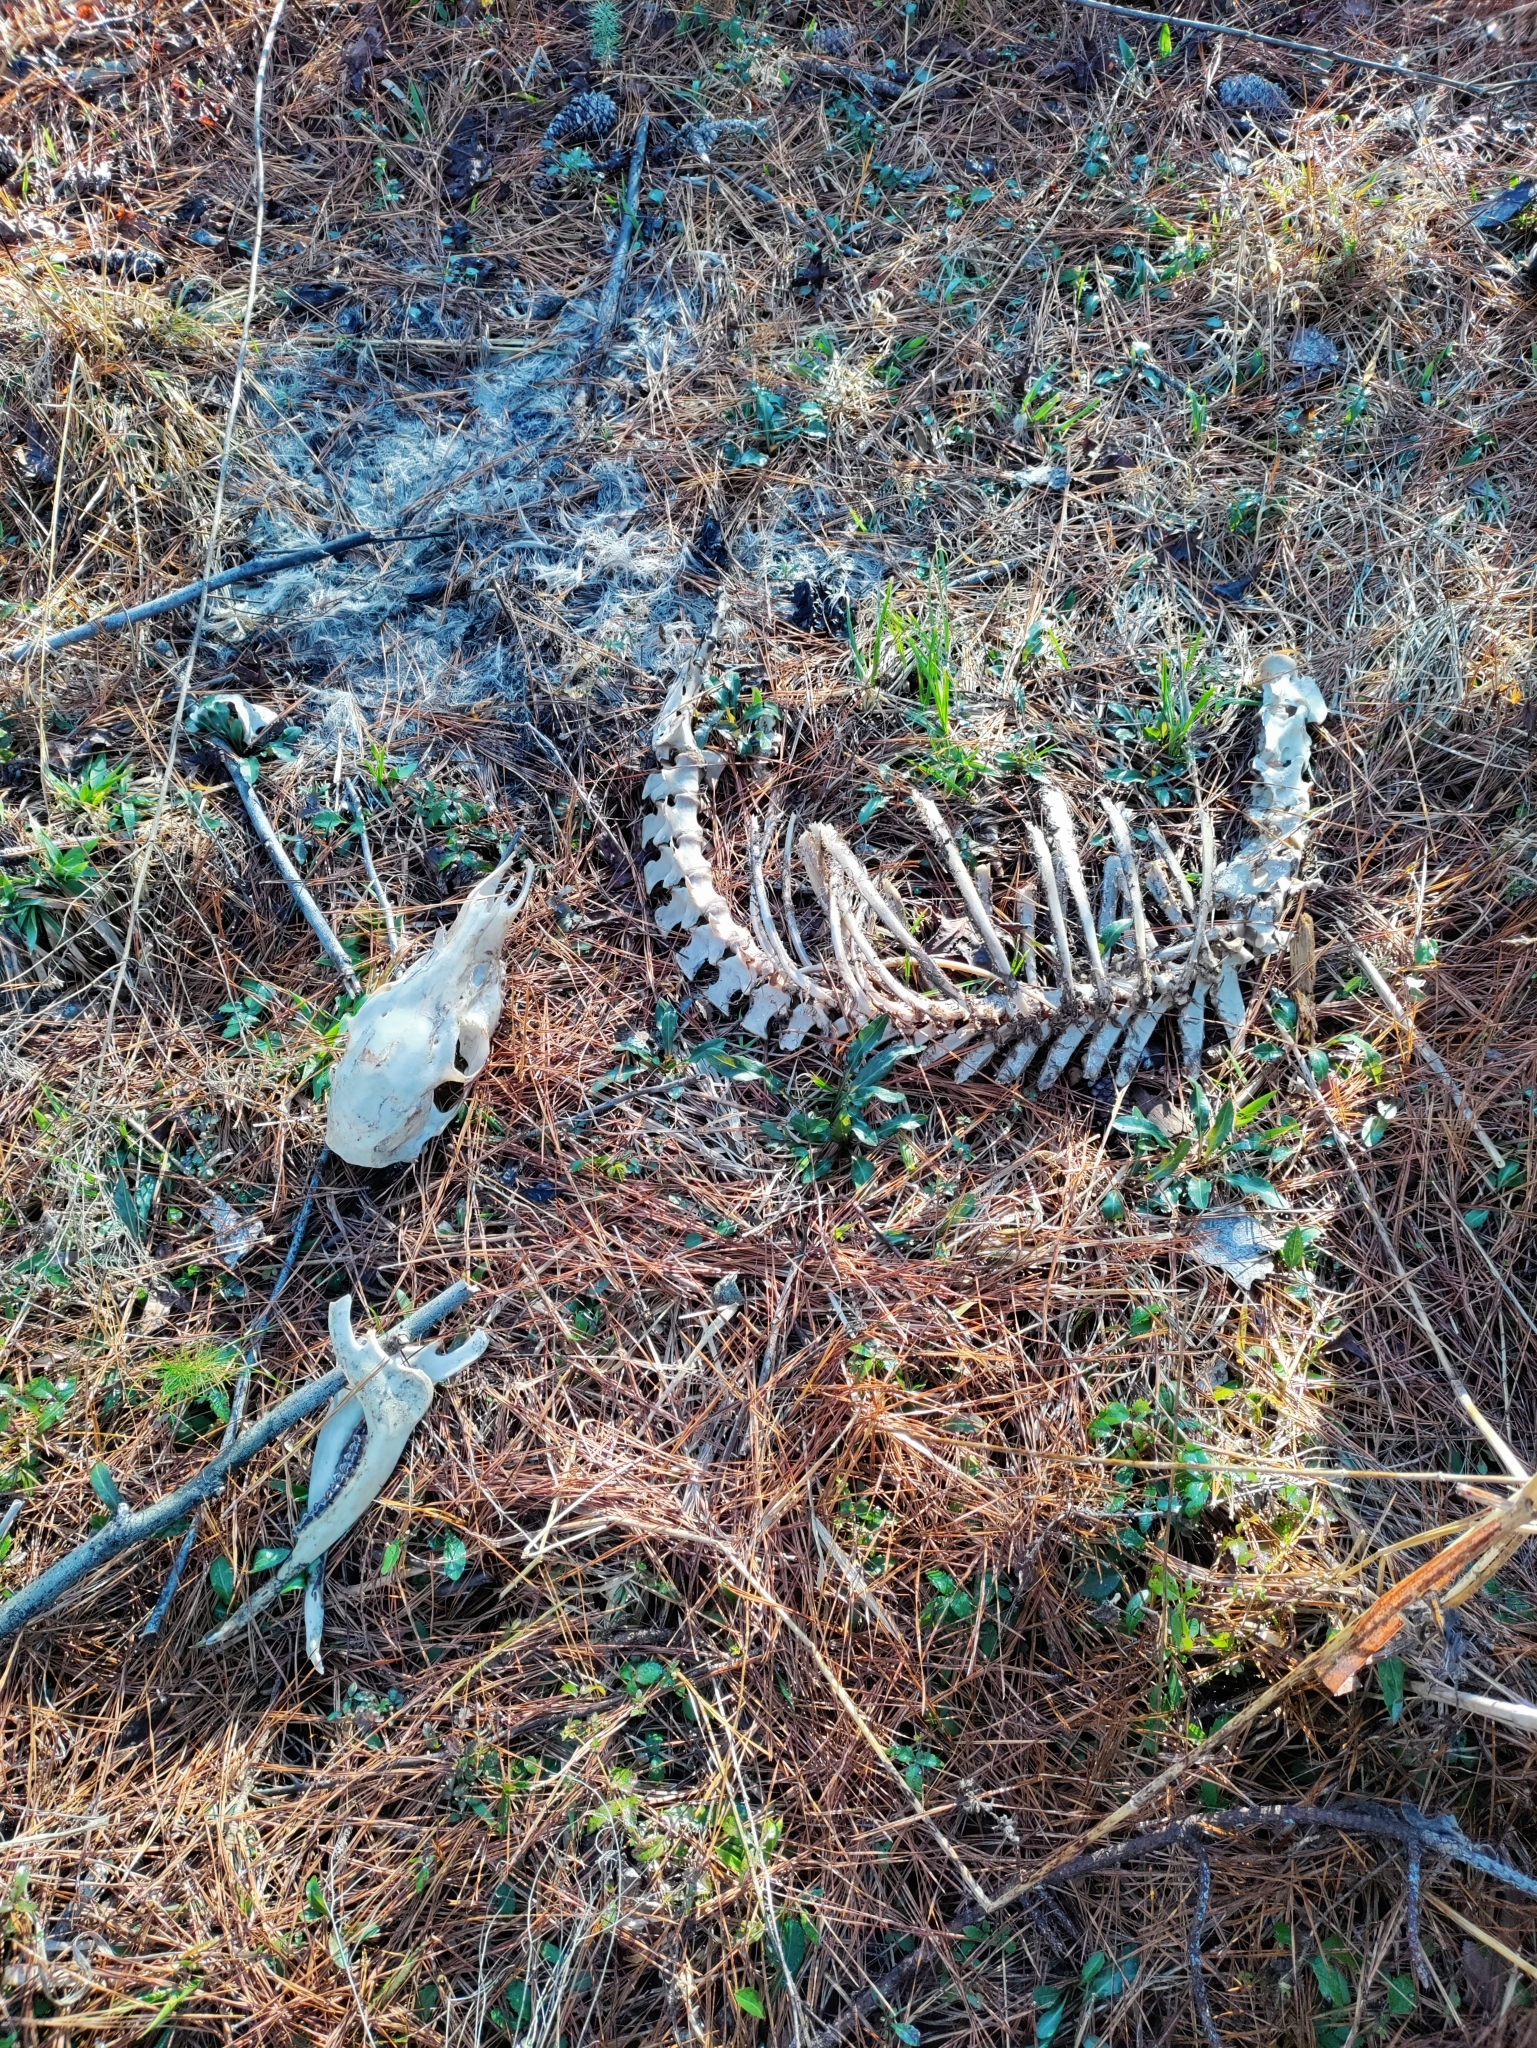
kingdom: Animalia
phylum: Chordata
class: Mammalia
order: Artiodactyla
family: Cervidae
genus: Odocoileus
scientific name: Odocoileus virginianus
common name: White-tailed deer
